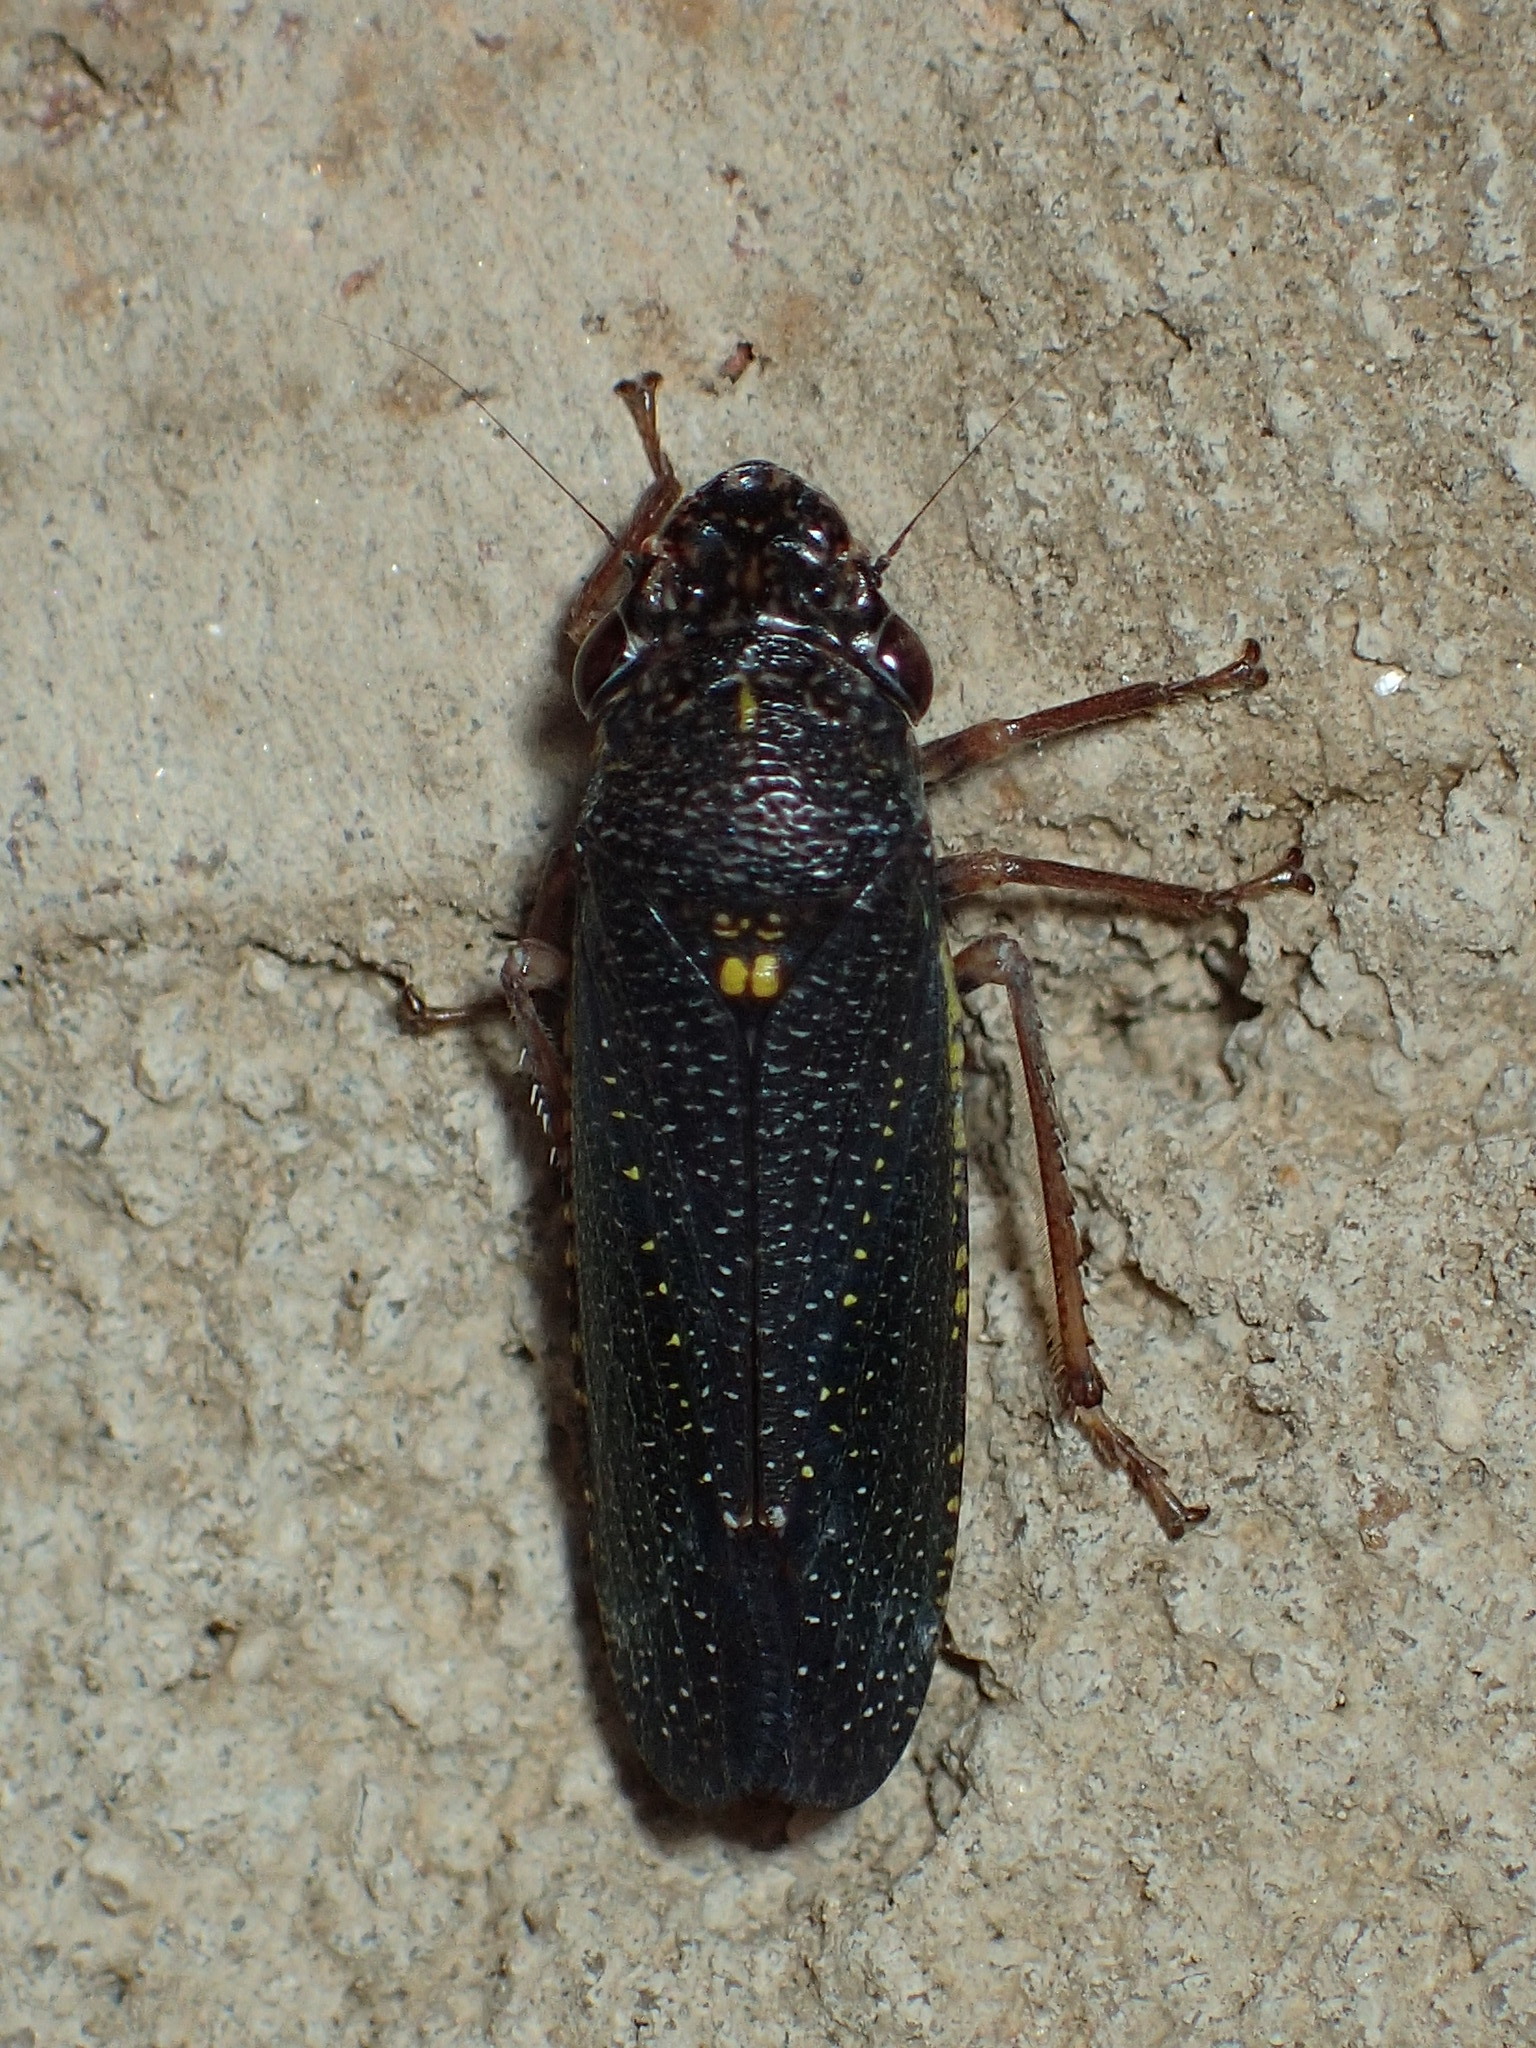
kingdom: Animalia
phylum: Arthropoda
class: Insecta
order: Hemiptera
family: Cicadellidae
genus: Paraulacizes
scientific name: Paraulacizes irrorata
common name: Speckled sharpshooter
